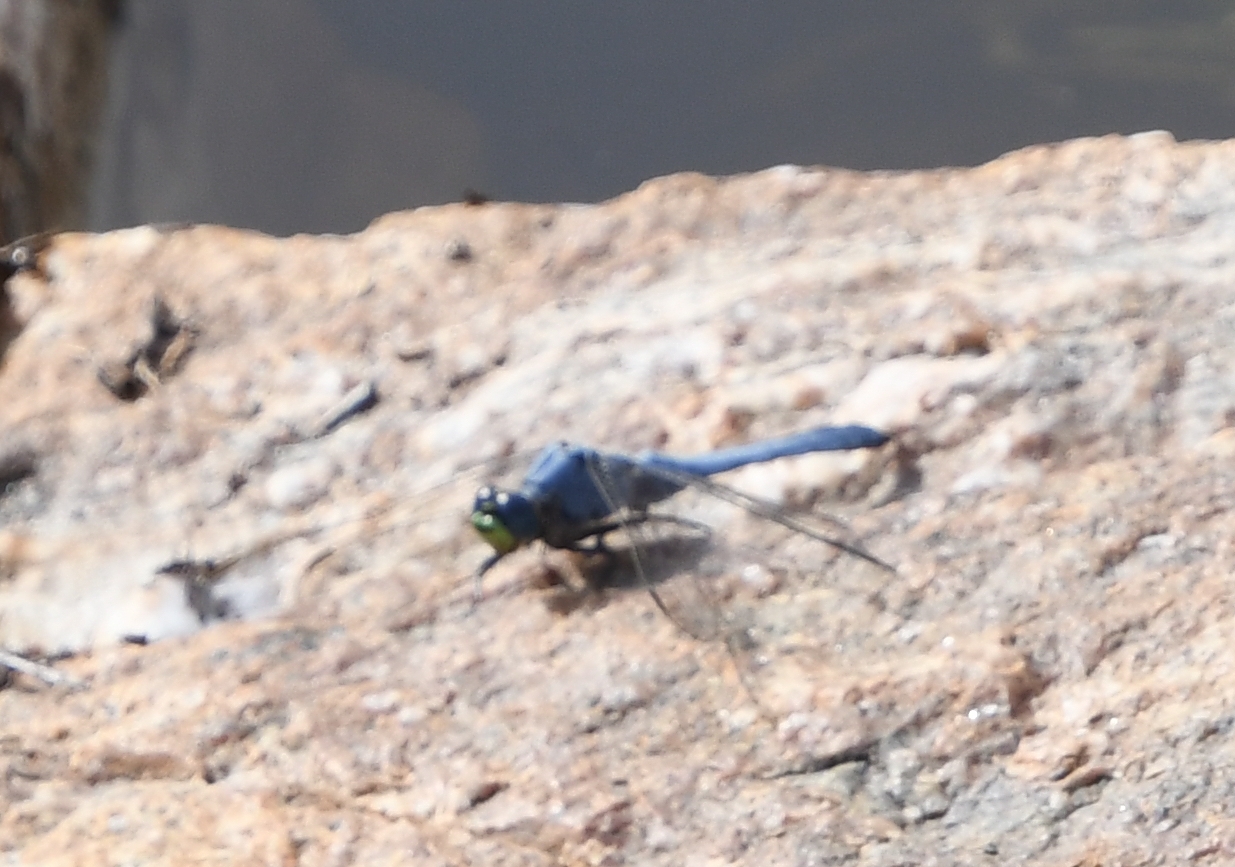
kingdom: Animalia
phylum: Arthropoda
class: Insecta
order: Odonata
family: Libellulidae
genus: Erythemis
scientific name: Erythemis collocata
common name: Western pondhawk
